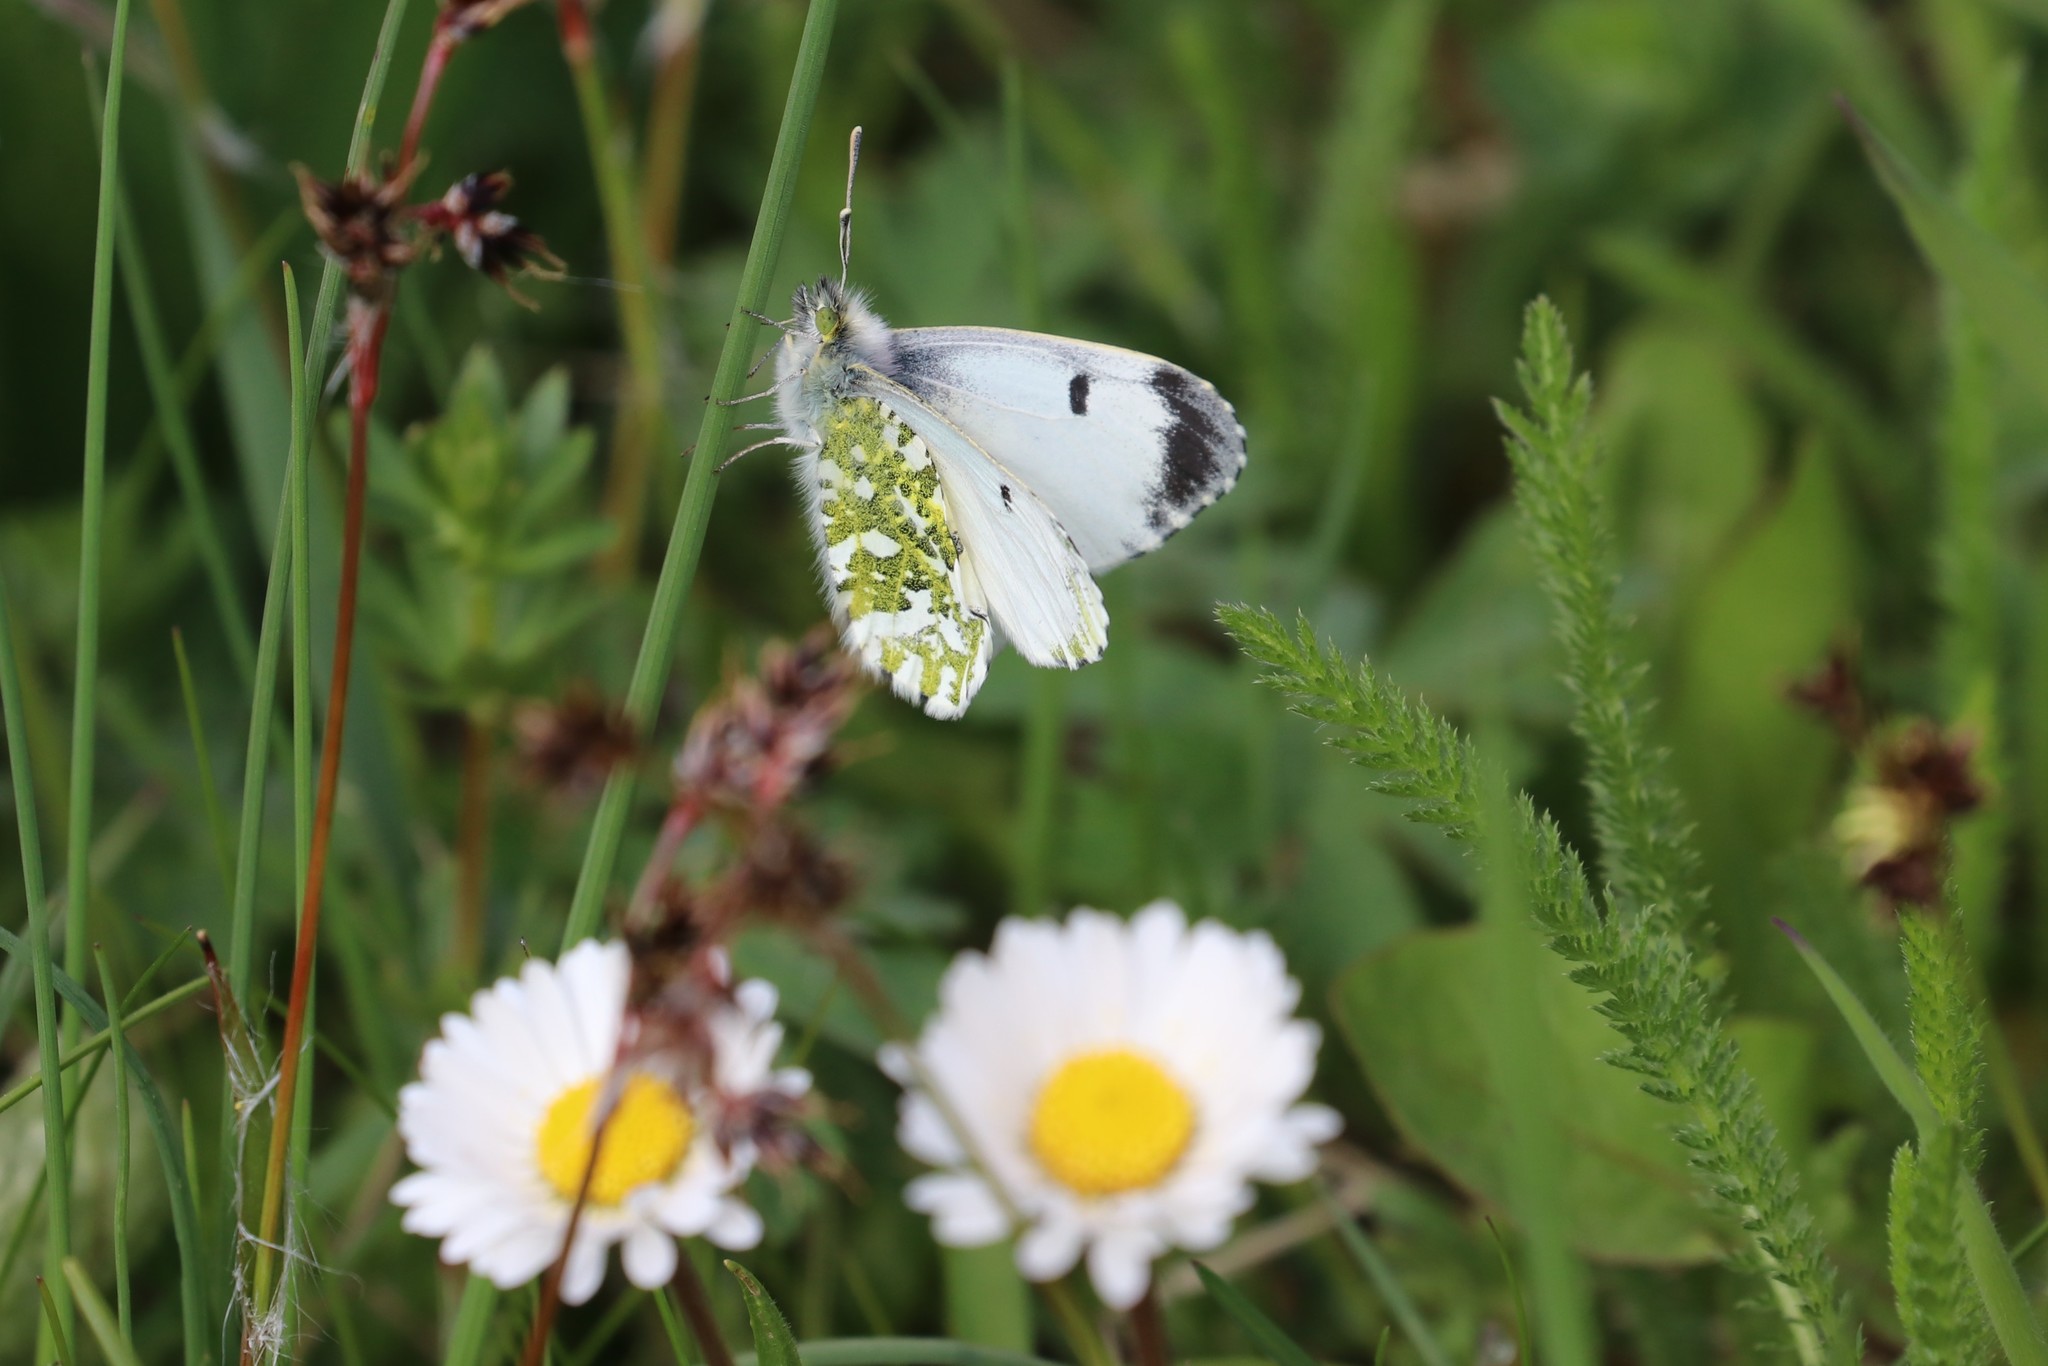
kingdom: Animalia
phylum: Arthropoda
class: Insecta
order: Lepidoptera
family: Pieridae
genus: Anthocharis
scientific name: Anthocharis cardamines
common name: Orange-tip
